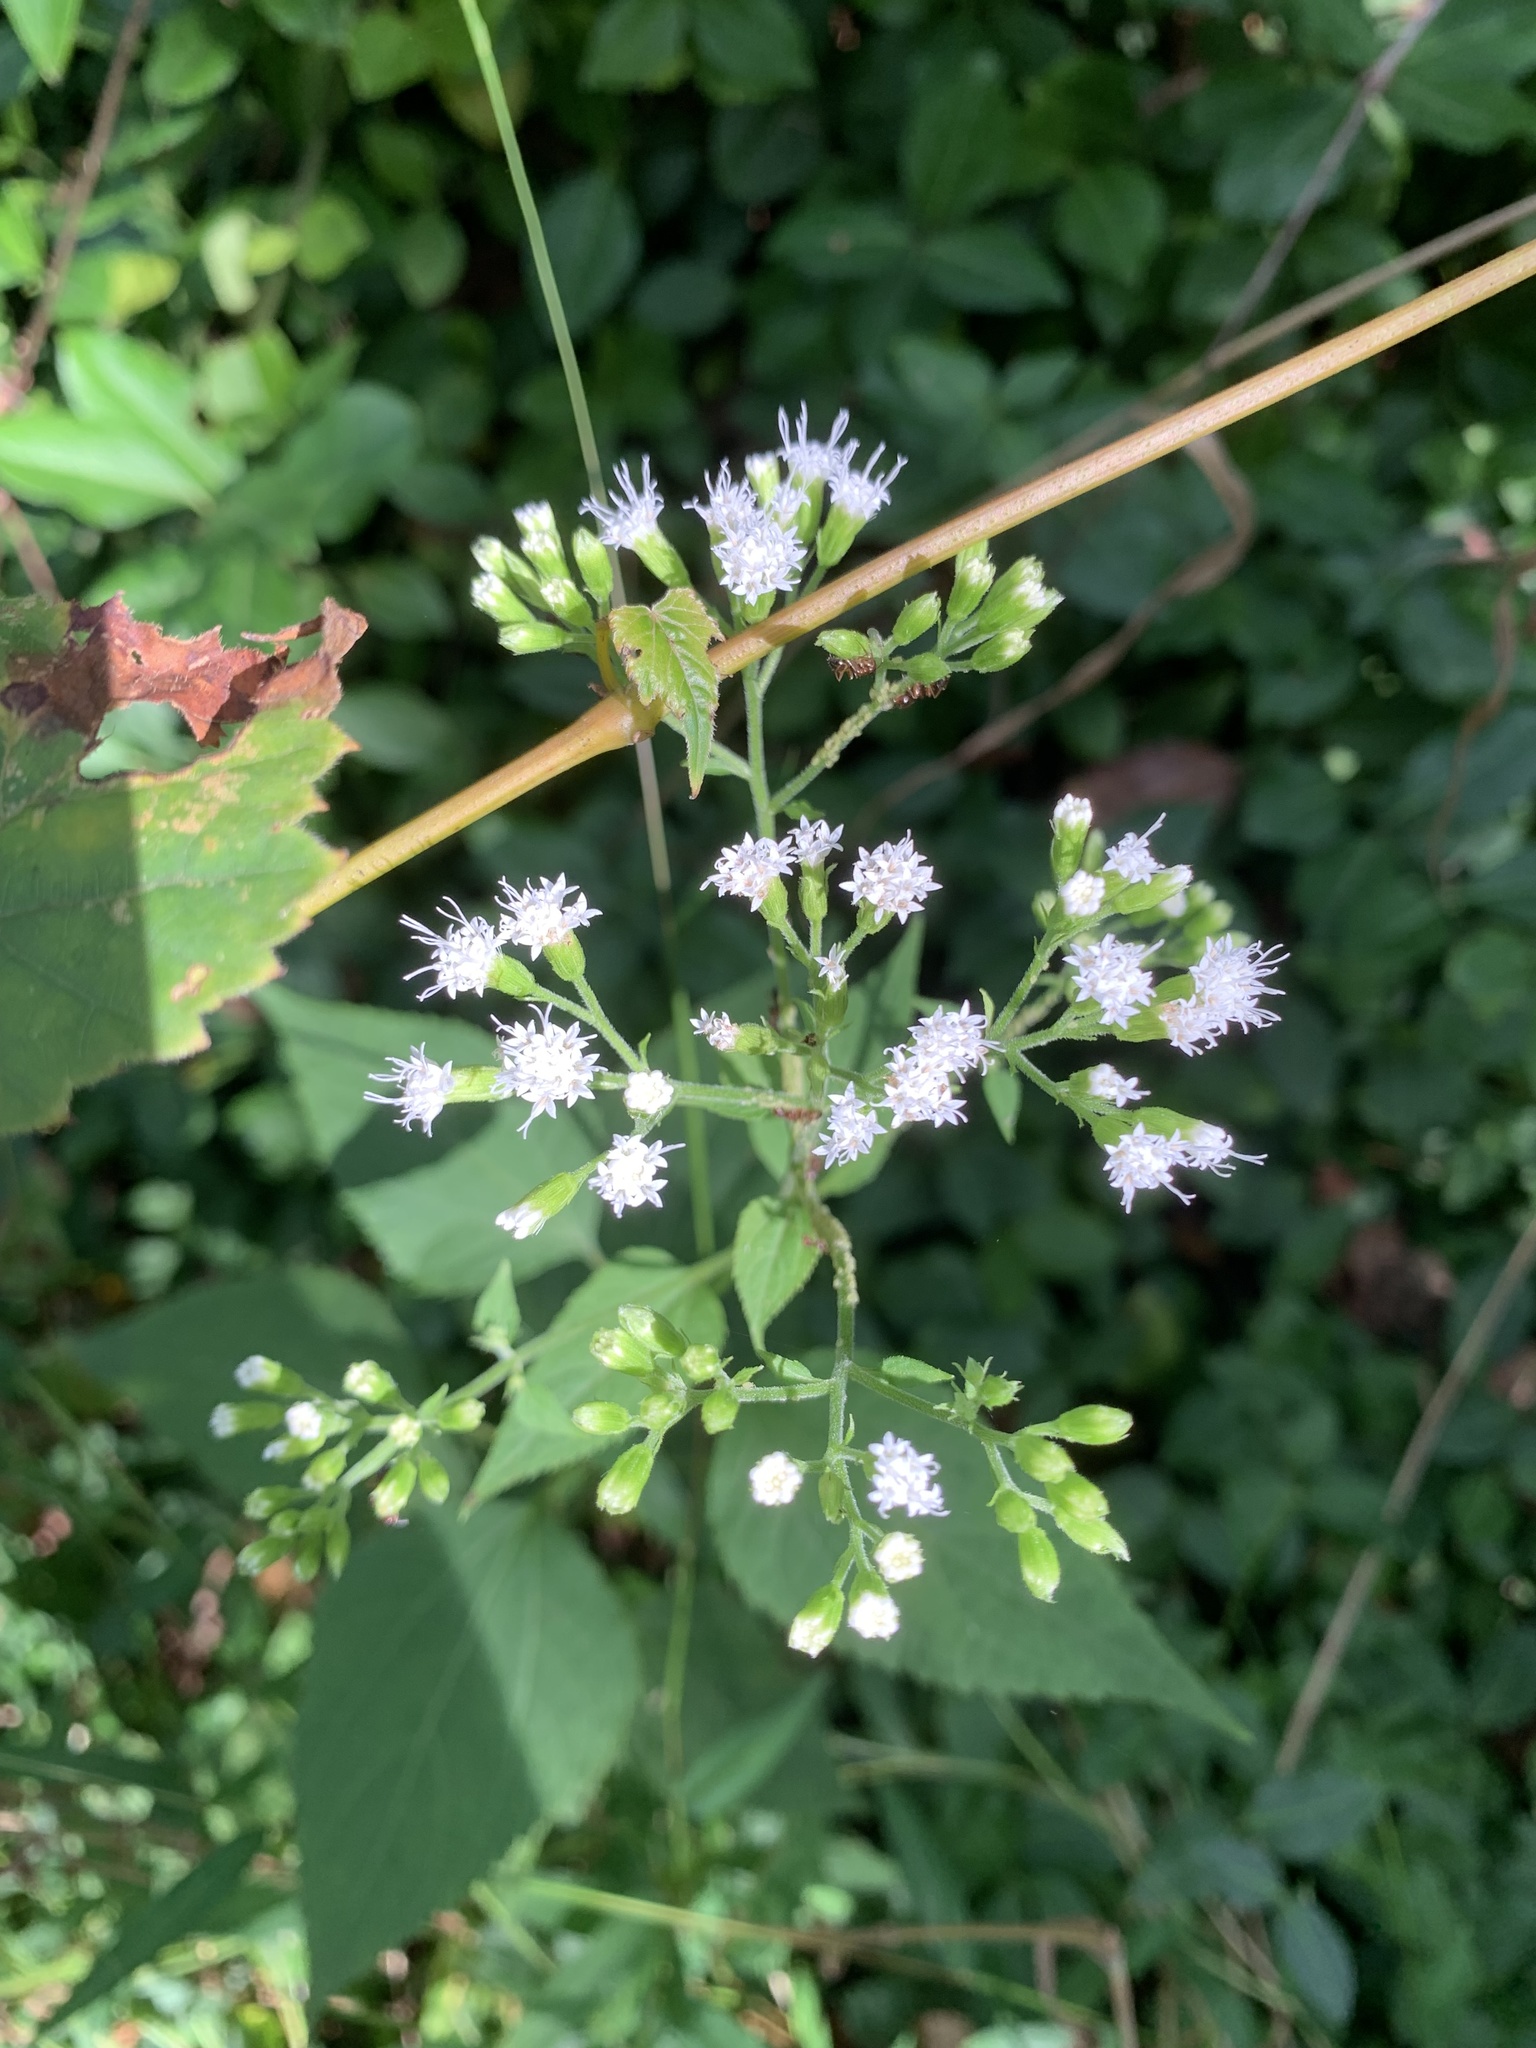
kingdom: Plantae
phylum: Tracheophyta
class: Magnoliopsida
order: Asterales
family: Asteraceae
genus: Ageratina
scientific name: Ageratina altissima
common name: White snakeroot
